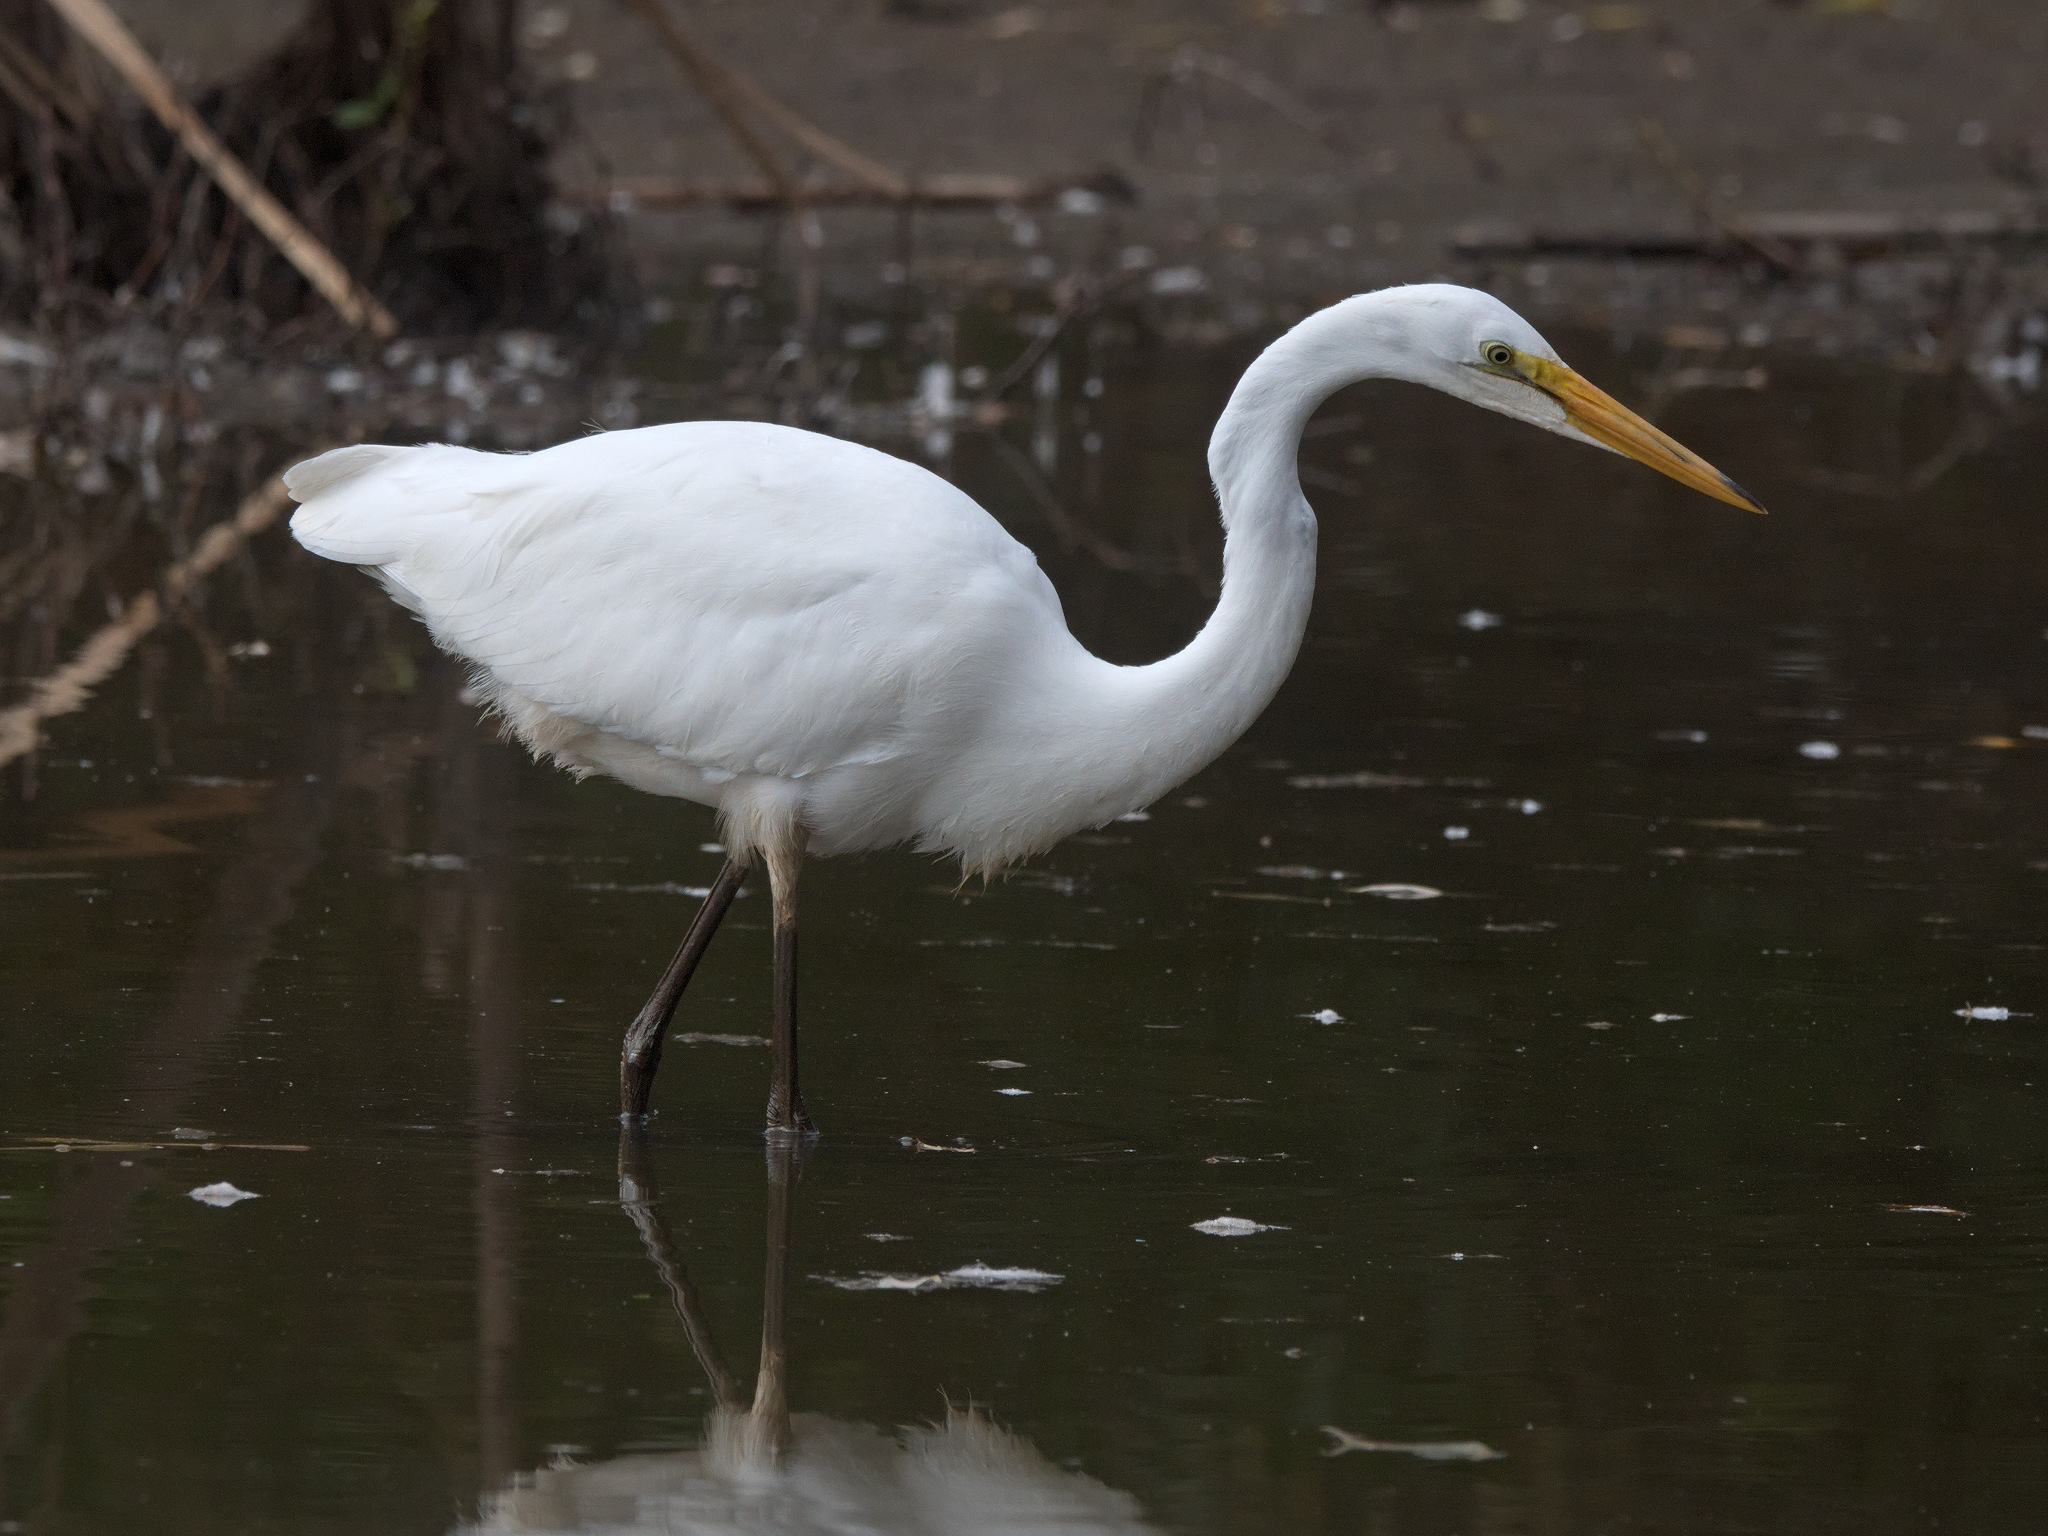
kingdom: Animalia
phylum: Chordata
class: Aves
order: Pelecaniformes
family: Ardeidae
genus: Ardea
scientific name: Ardea alba
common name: Great egret
